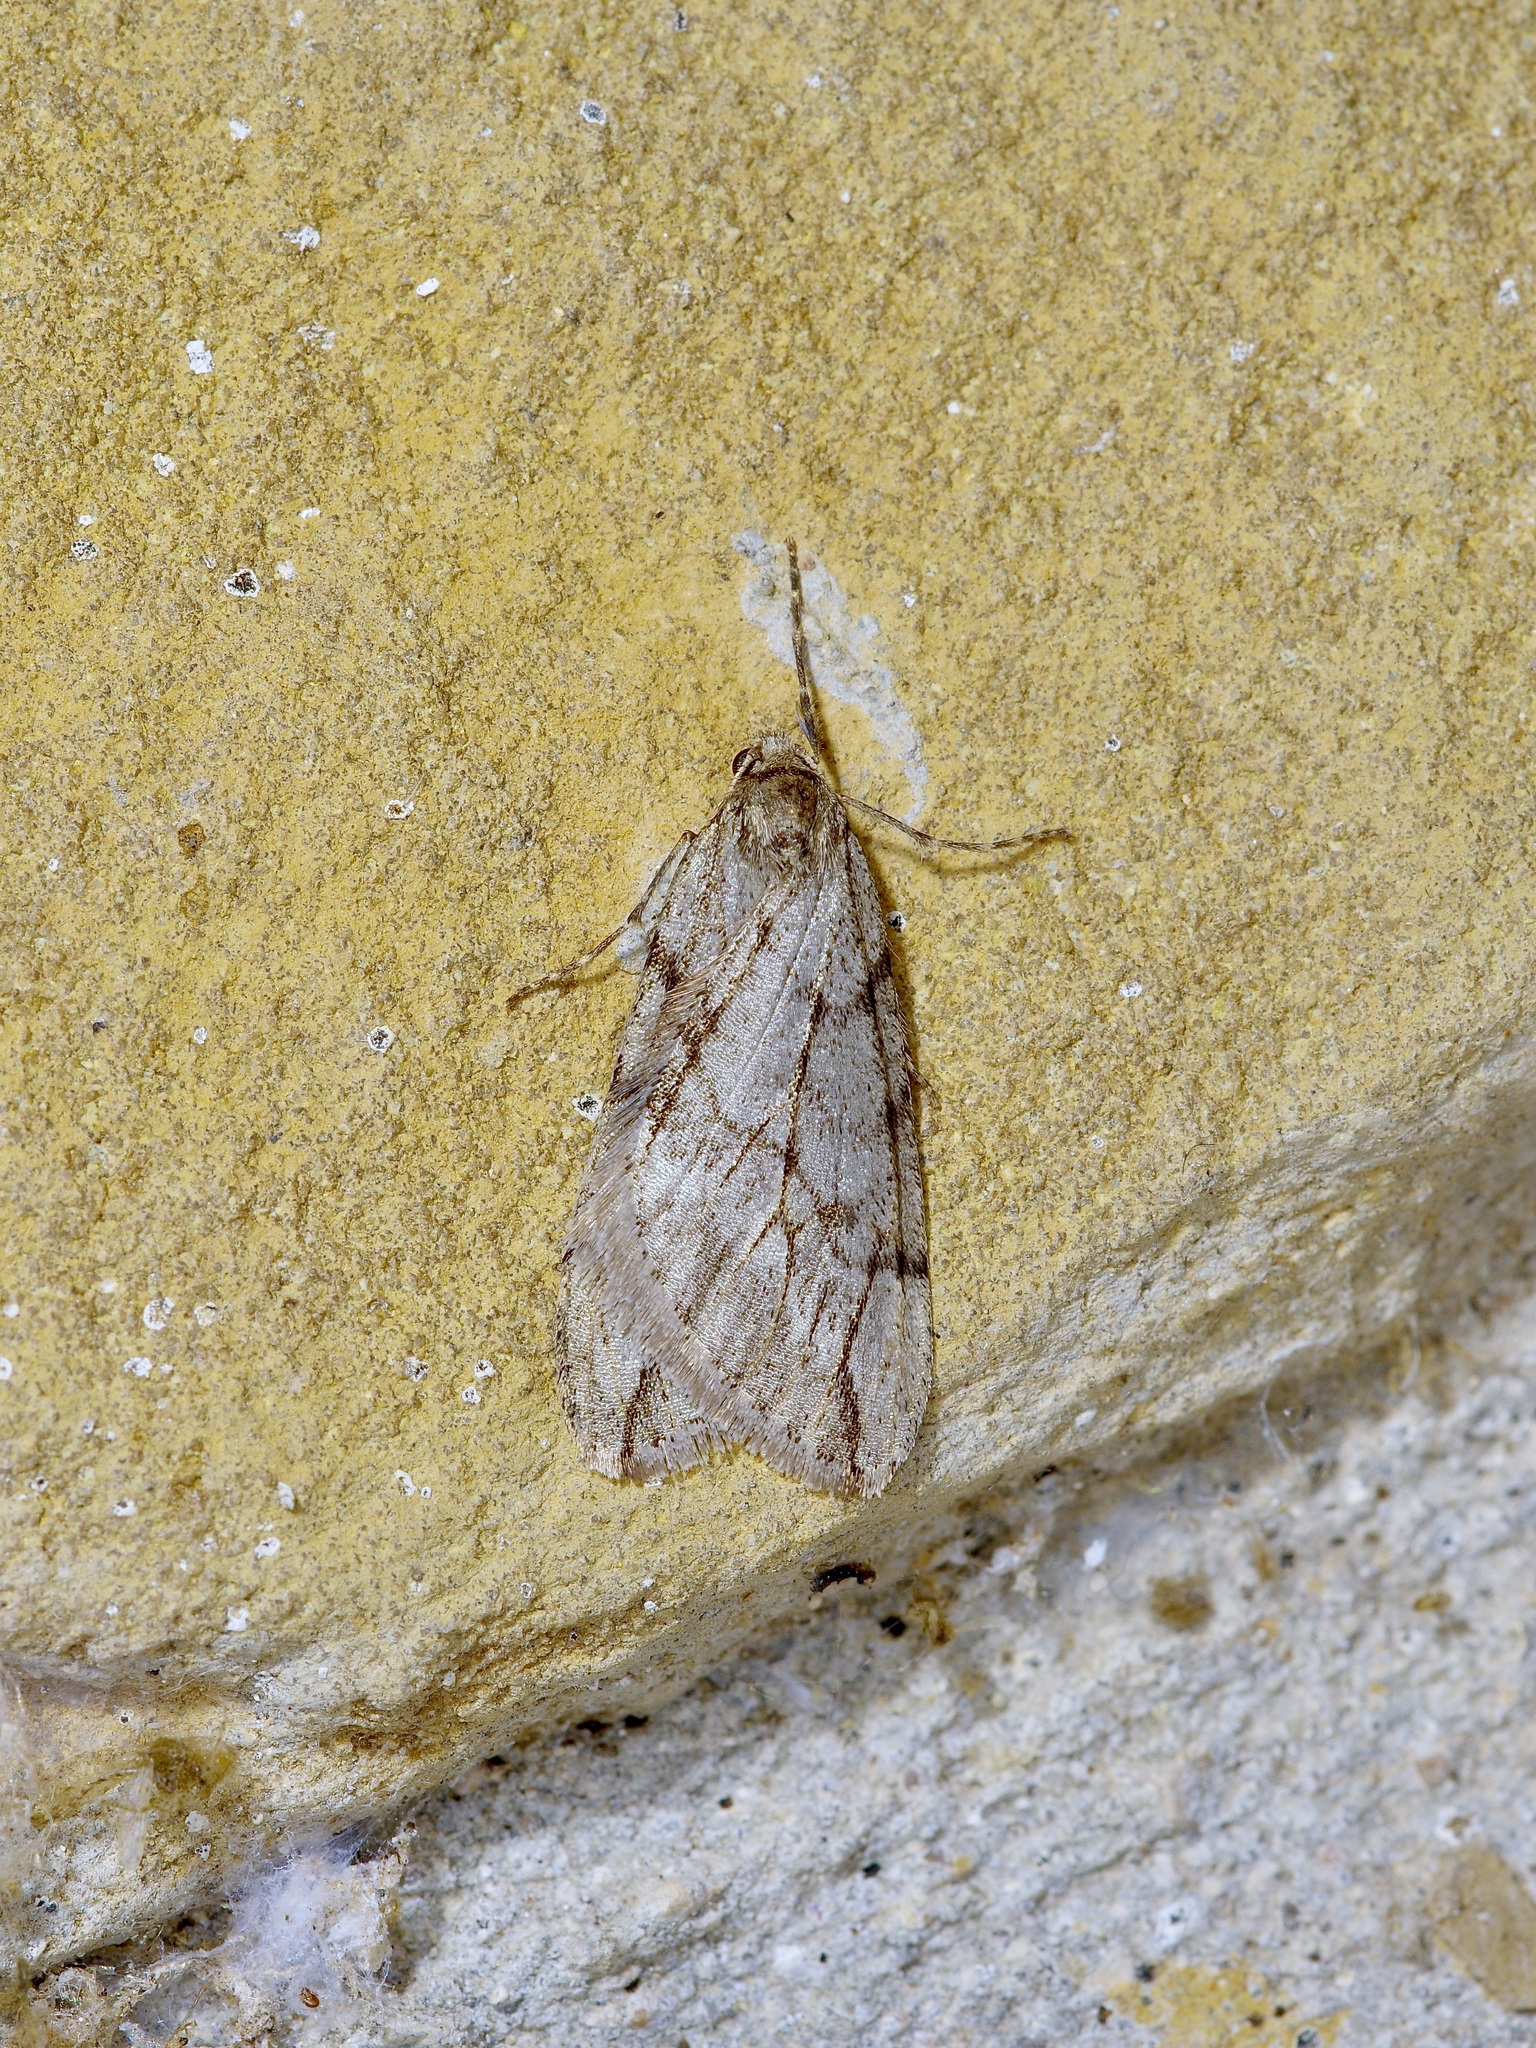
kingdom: Animalia
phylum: Arthropoda
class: Insecta
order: Lepidoptera
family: Geometridae
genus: Paleacrita
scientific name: Paleacrita vernata
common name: Spring cankerworm
